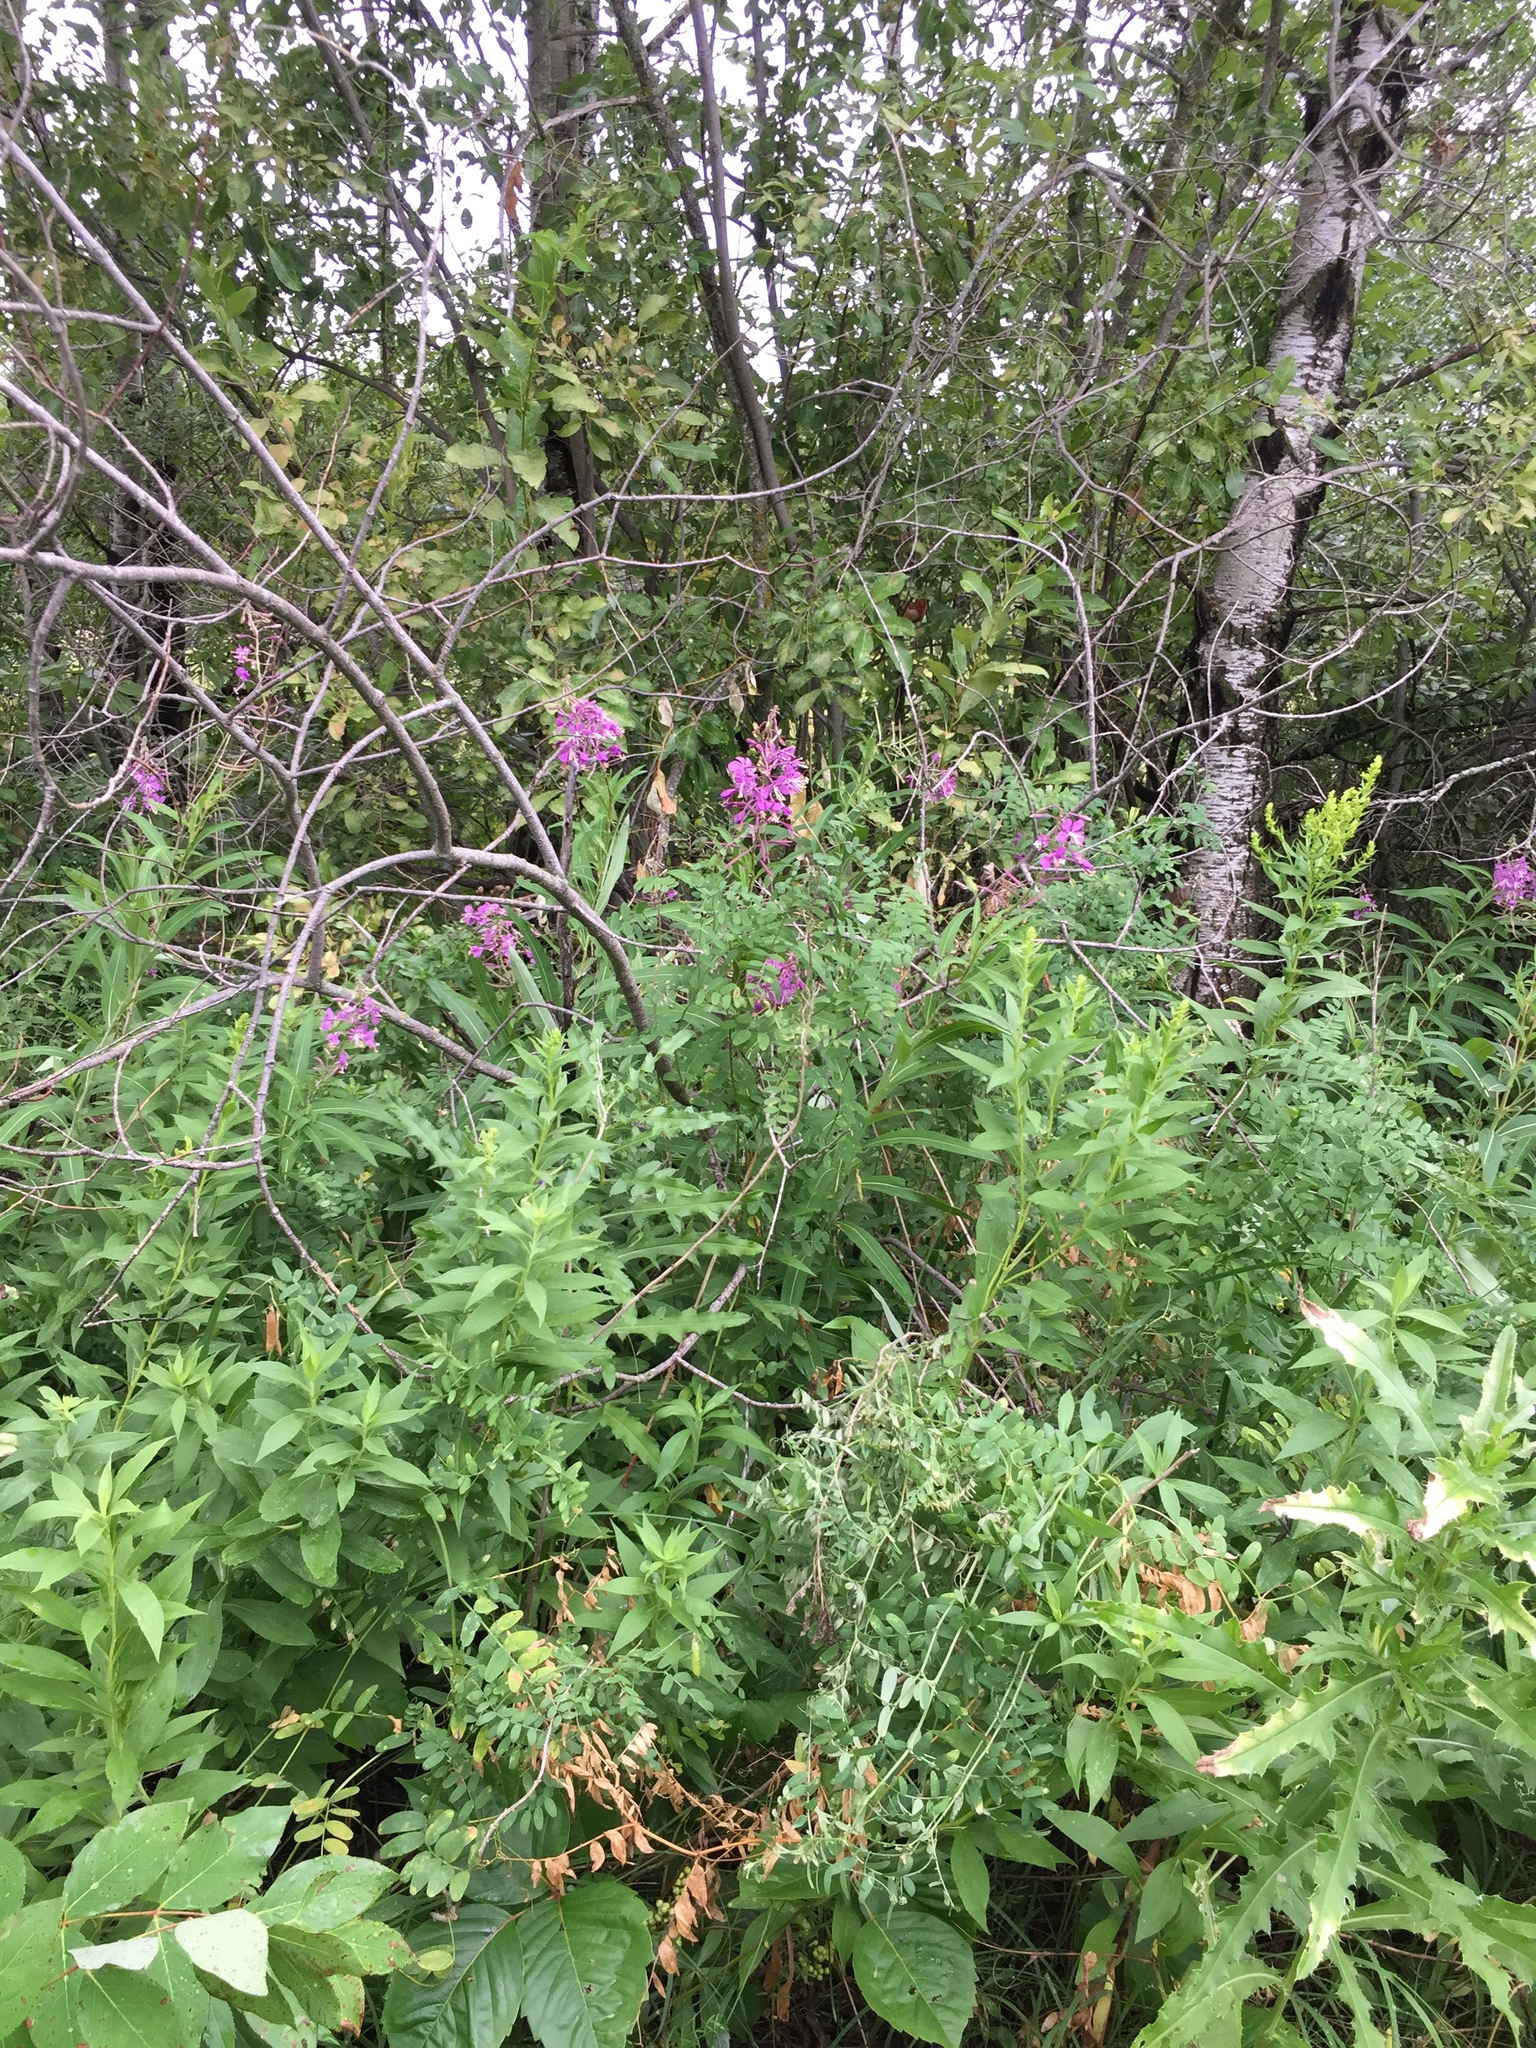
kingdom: Plantae
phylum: Tracheophyta
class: Magnoliopsida
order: Myrtales
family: Onagraceae
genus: Chamaenerion
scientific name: Chamaenerion angustifolium
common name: Fireweed
